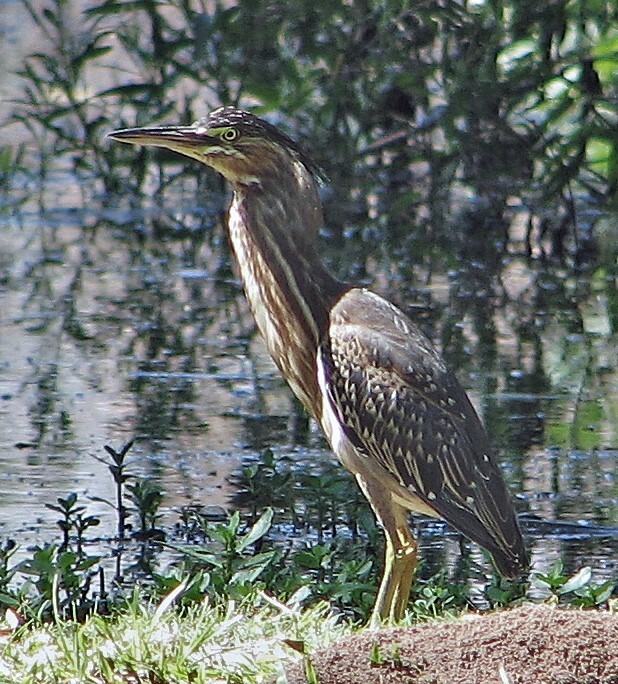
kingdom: Animalia
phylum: Chordata
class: Aves
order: Pelecaniformes
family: Ardeidae
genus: Butorides
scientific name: Butorides striata
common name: Striated heron
